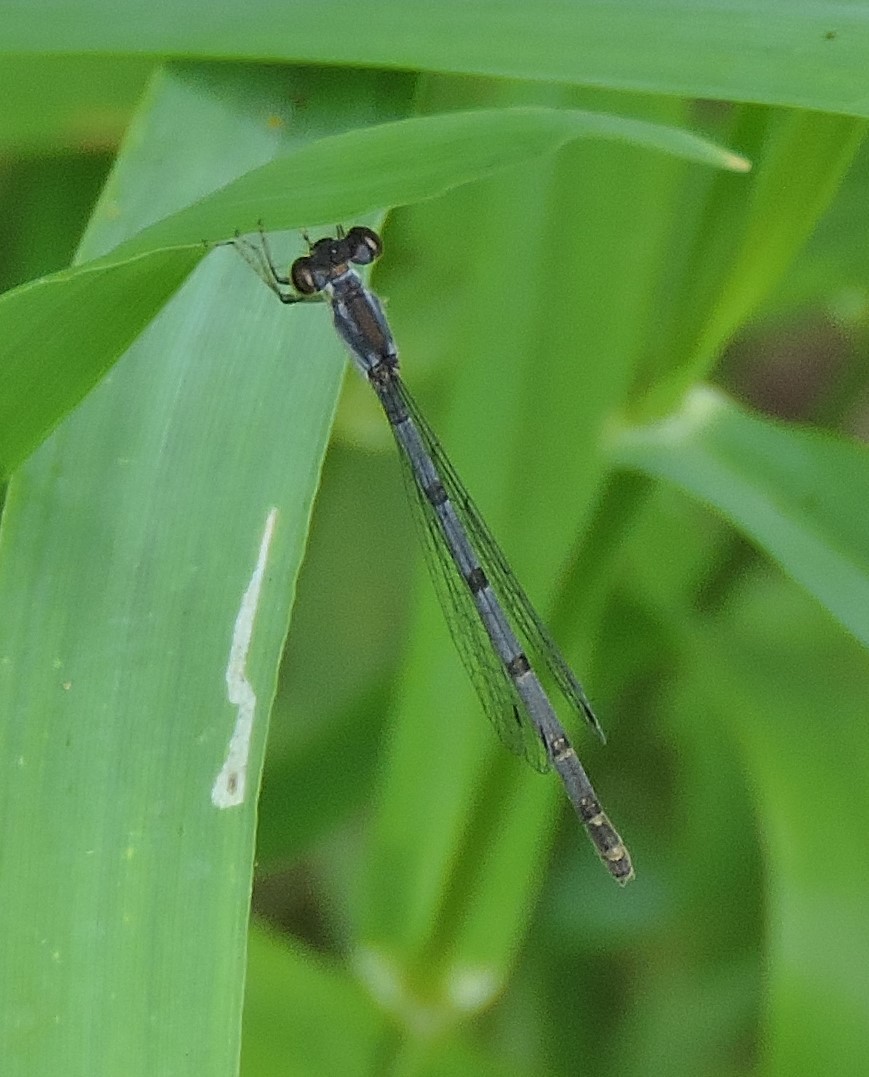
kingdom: Animalia
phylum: Arthropoda
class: Insecta
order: Odonata
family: Coenagrionidae
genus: Ischnura
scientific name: Ischnura posita
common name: Fragile forktail
